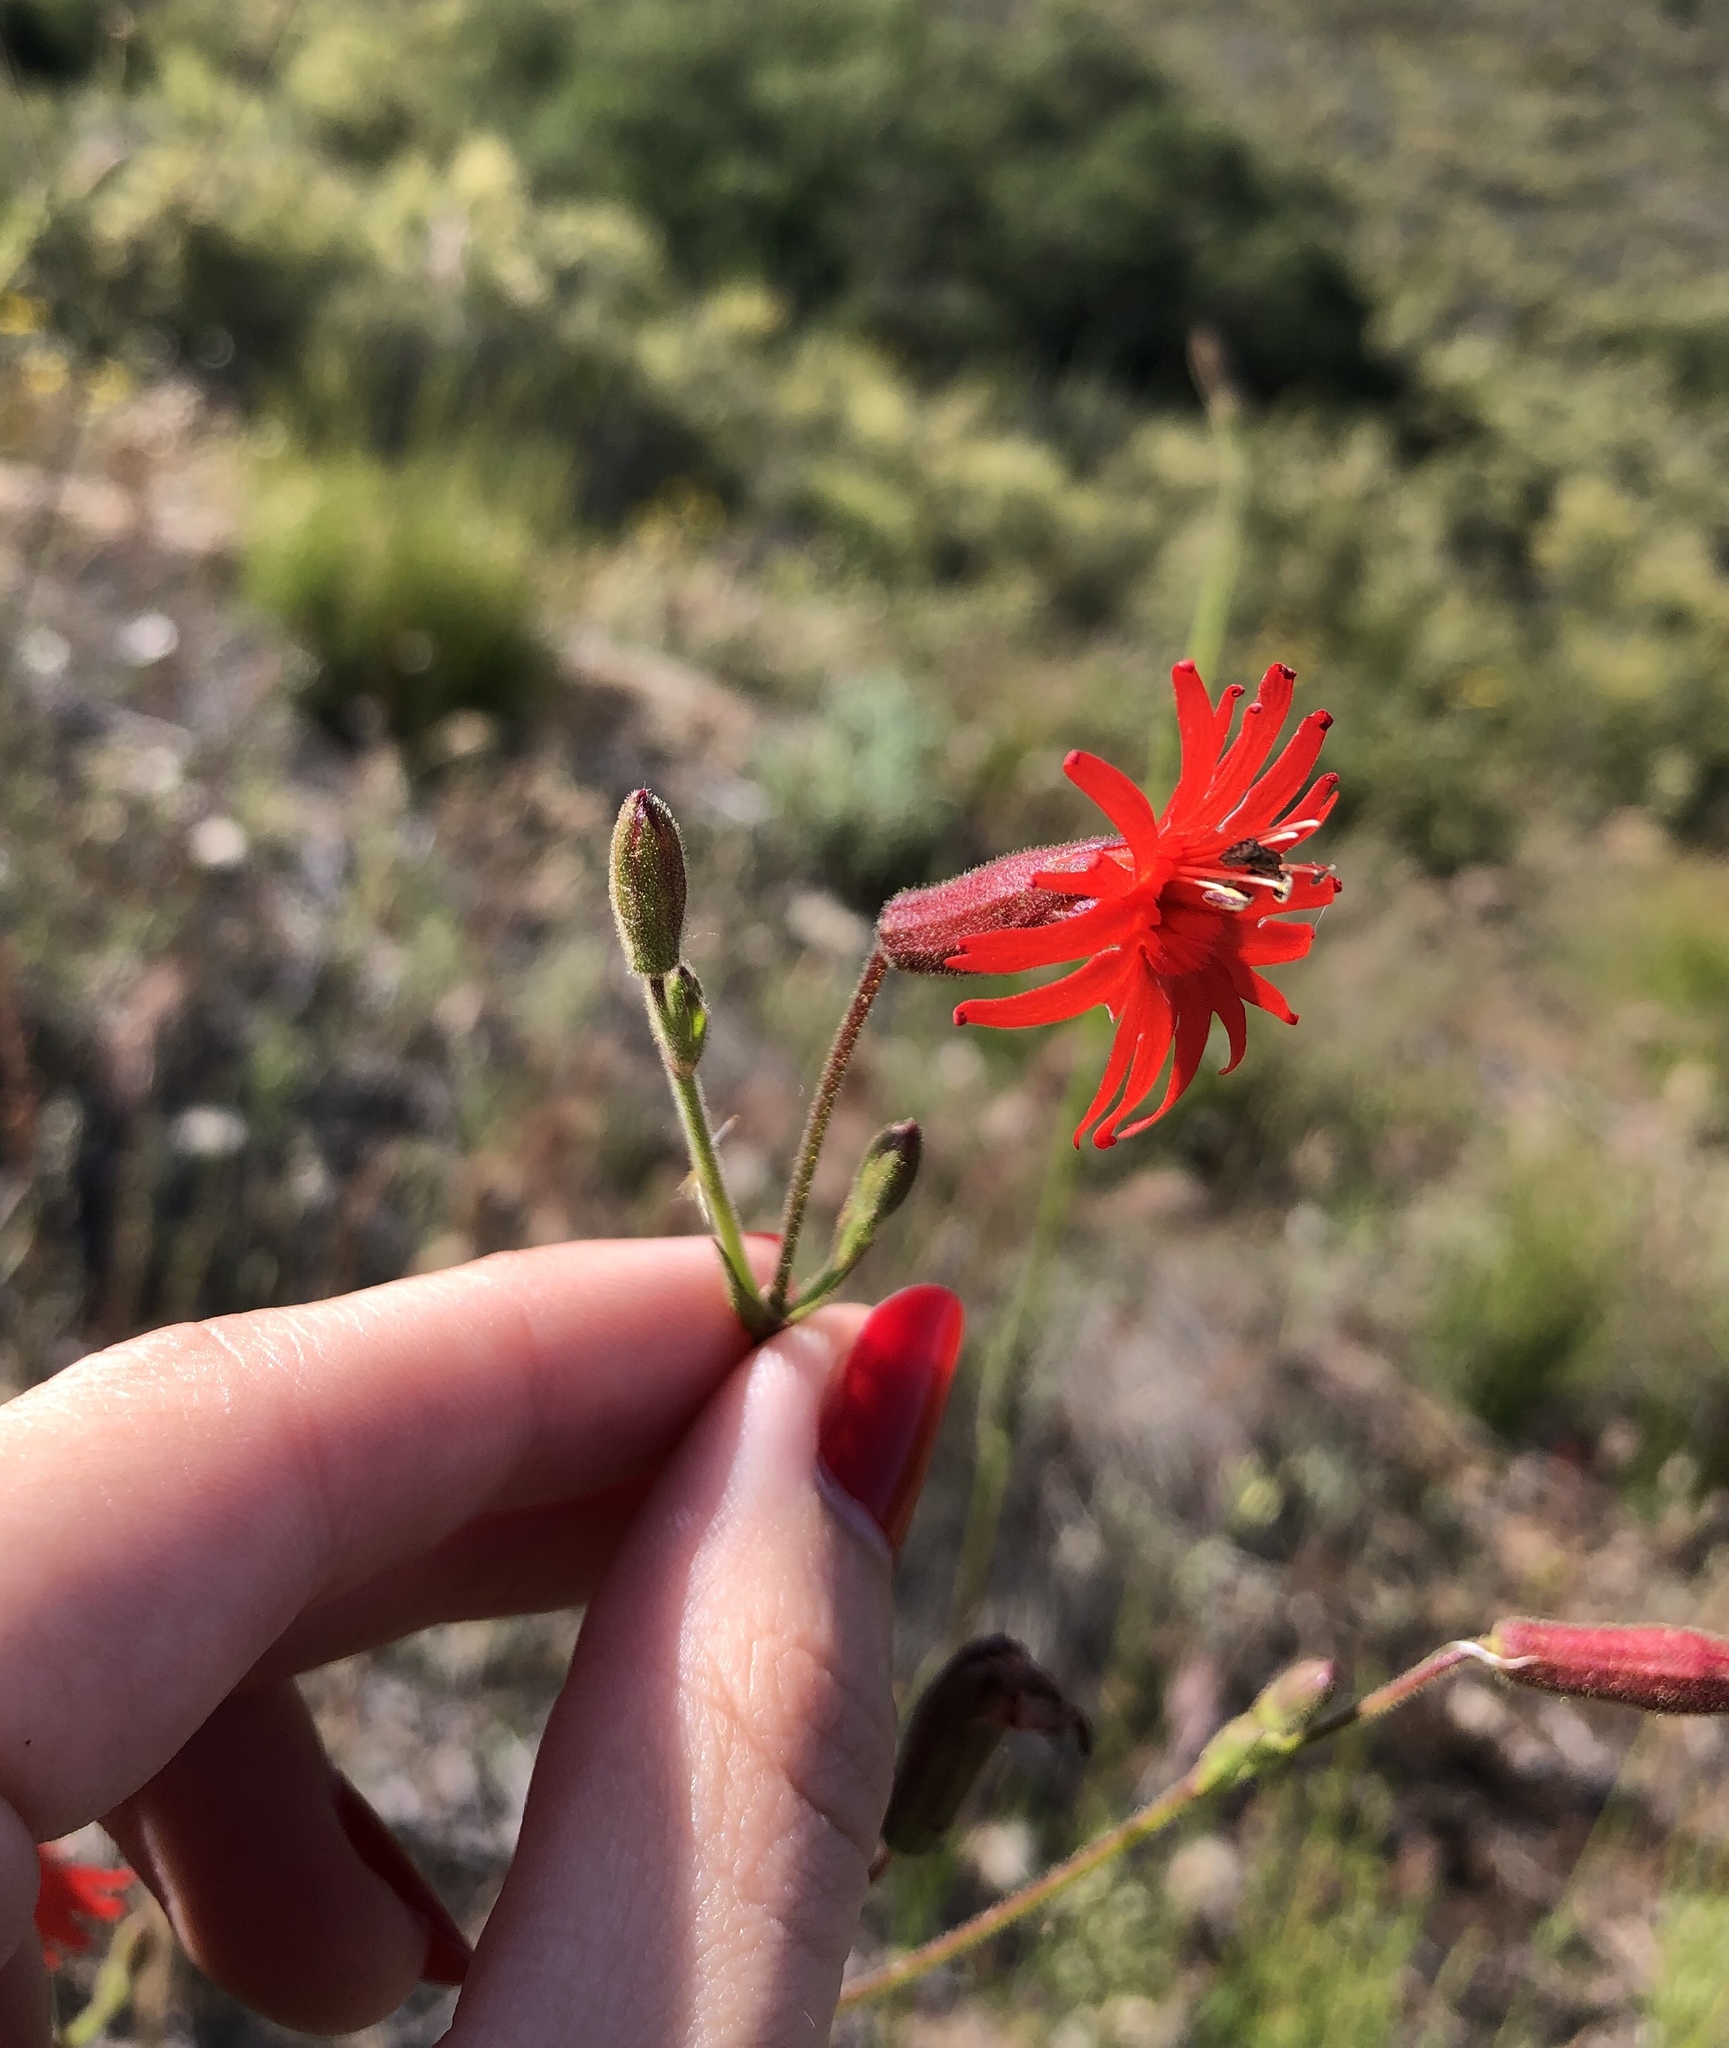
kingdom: Plantae
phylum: Tracheophyta
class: Magnoliopsida
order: Caryophyllales
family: Caryophyllaceae
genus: Silene
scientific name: Silene laciniata
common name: Indian-pink
